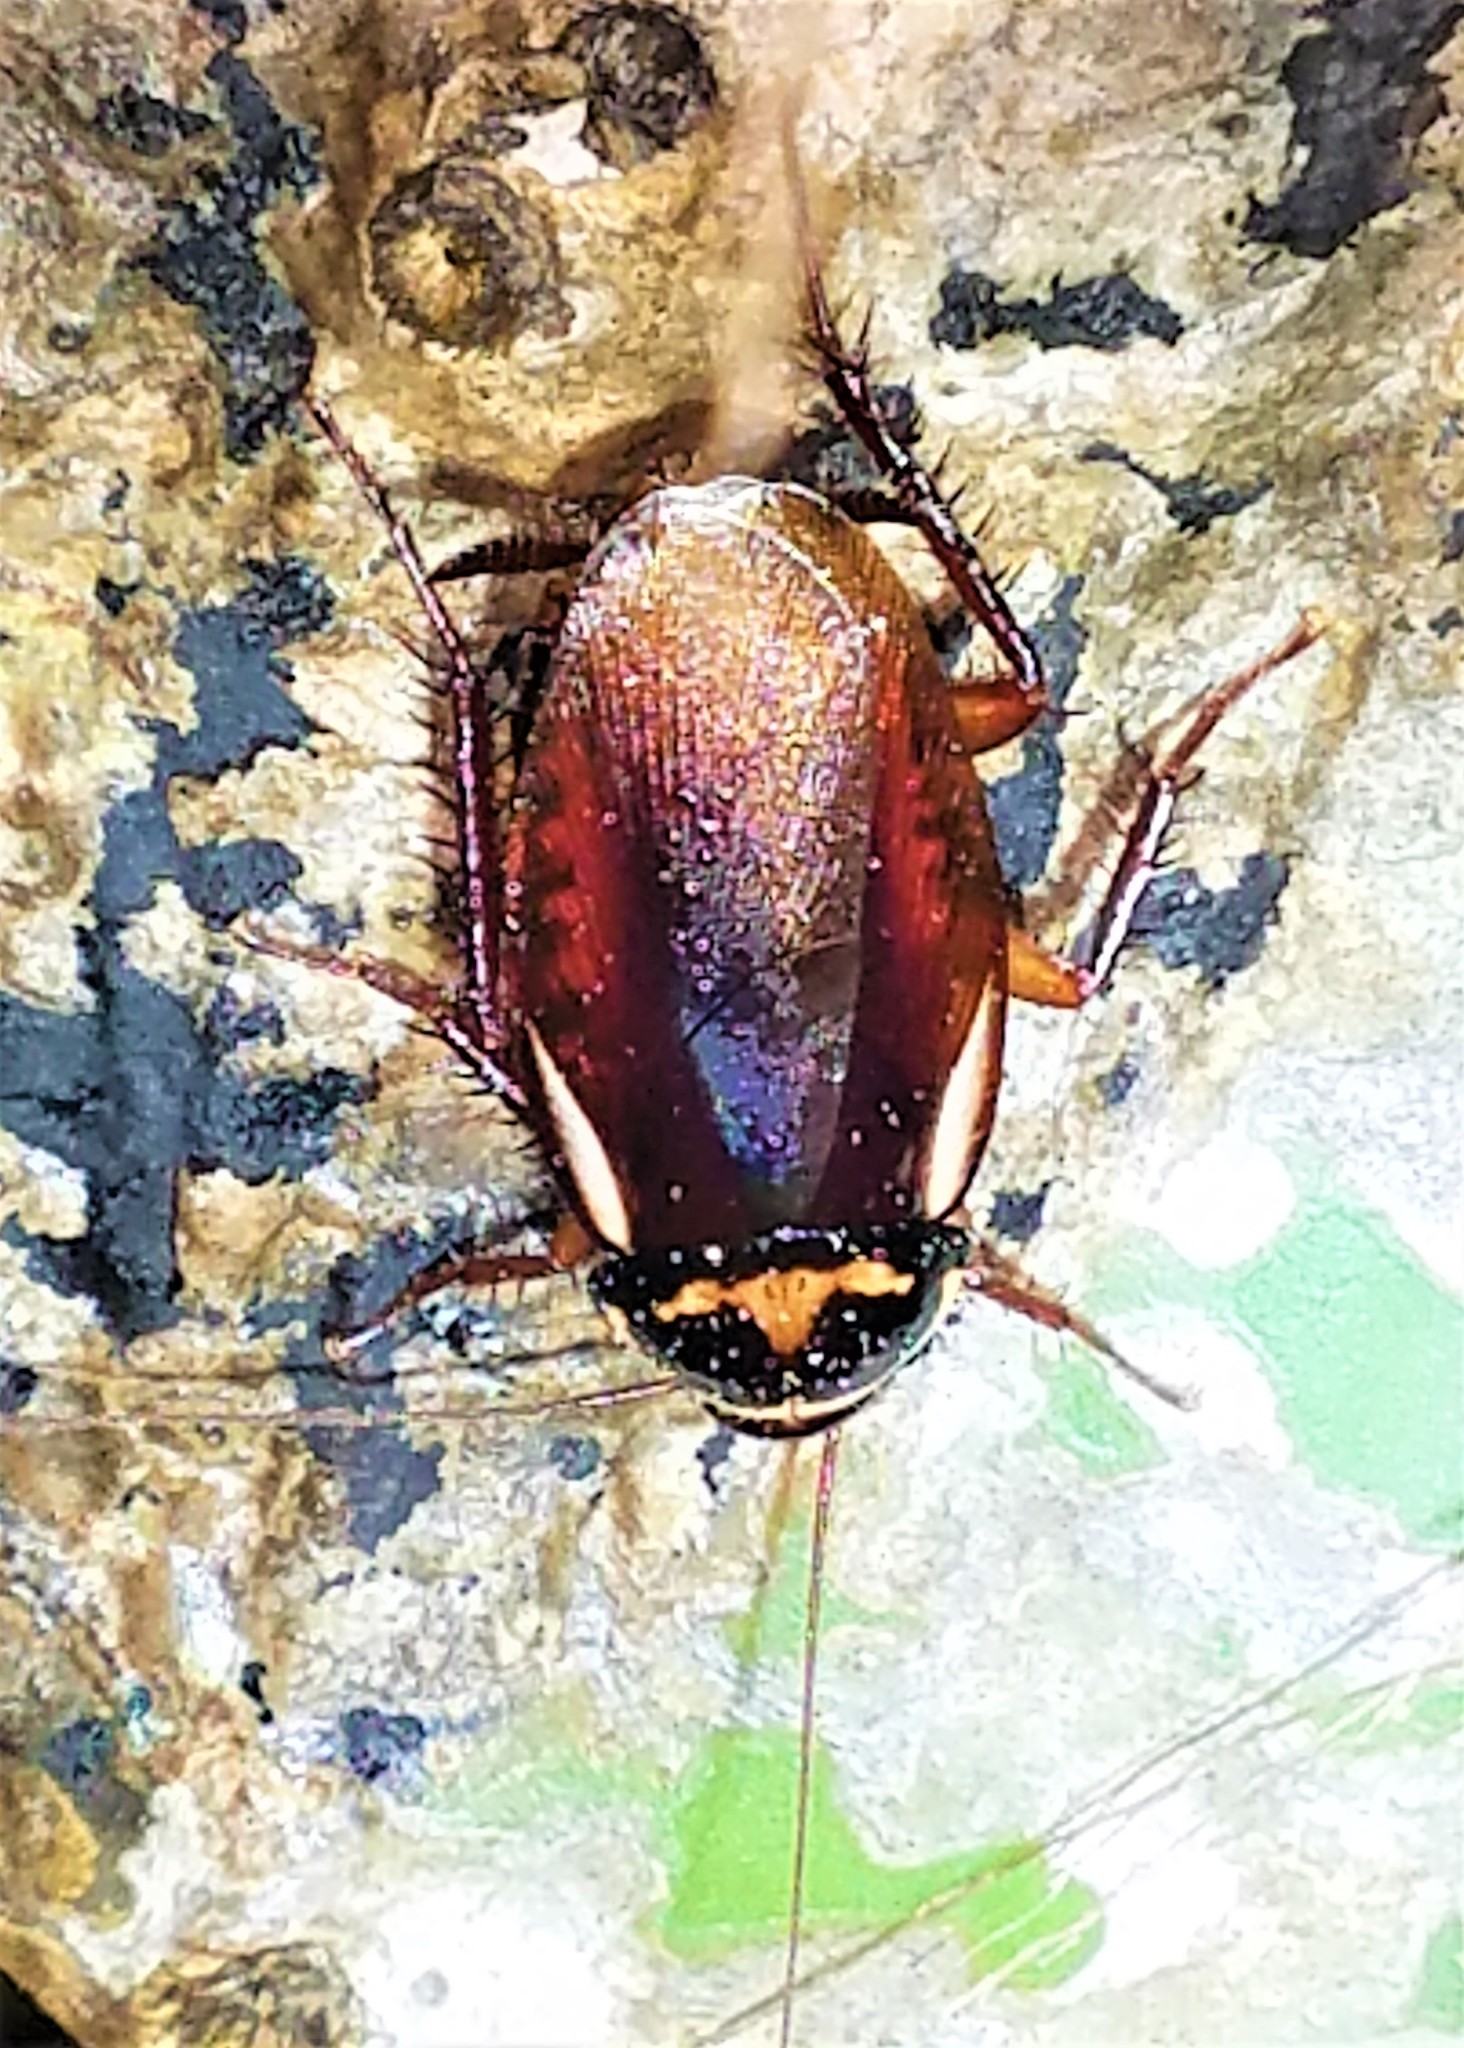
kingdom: Animalia
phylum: Arthropoda
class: Insecta
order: Blattodea
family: Blattidae
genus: Periplaneta
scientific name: Periplaneta australasiae
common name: Australian cockroach
